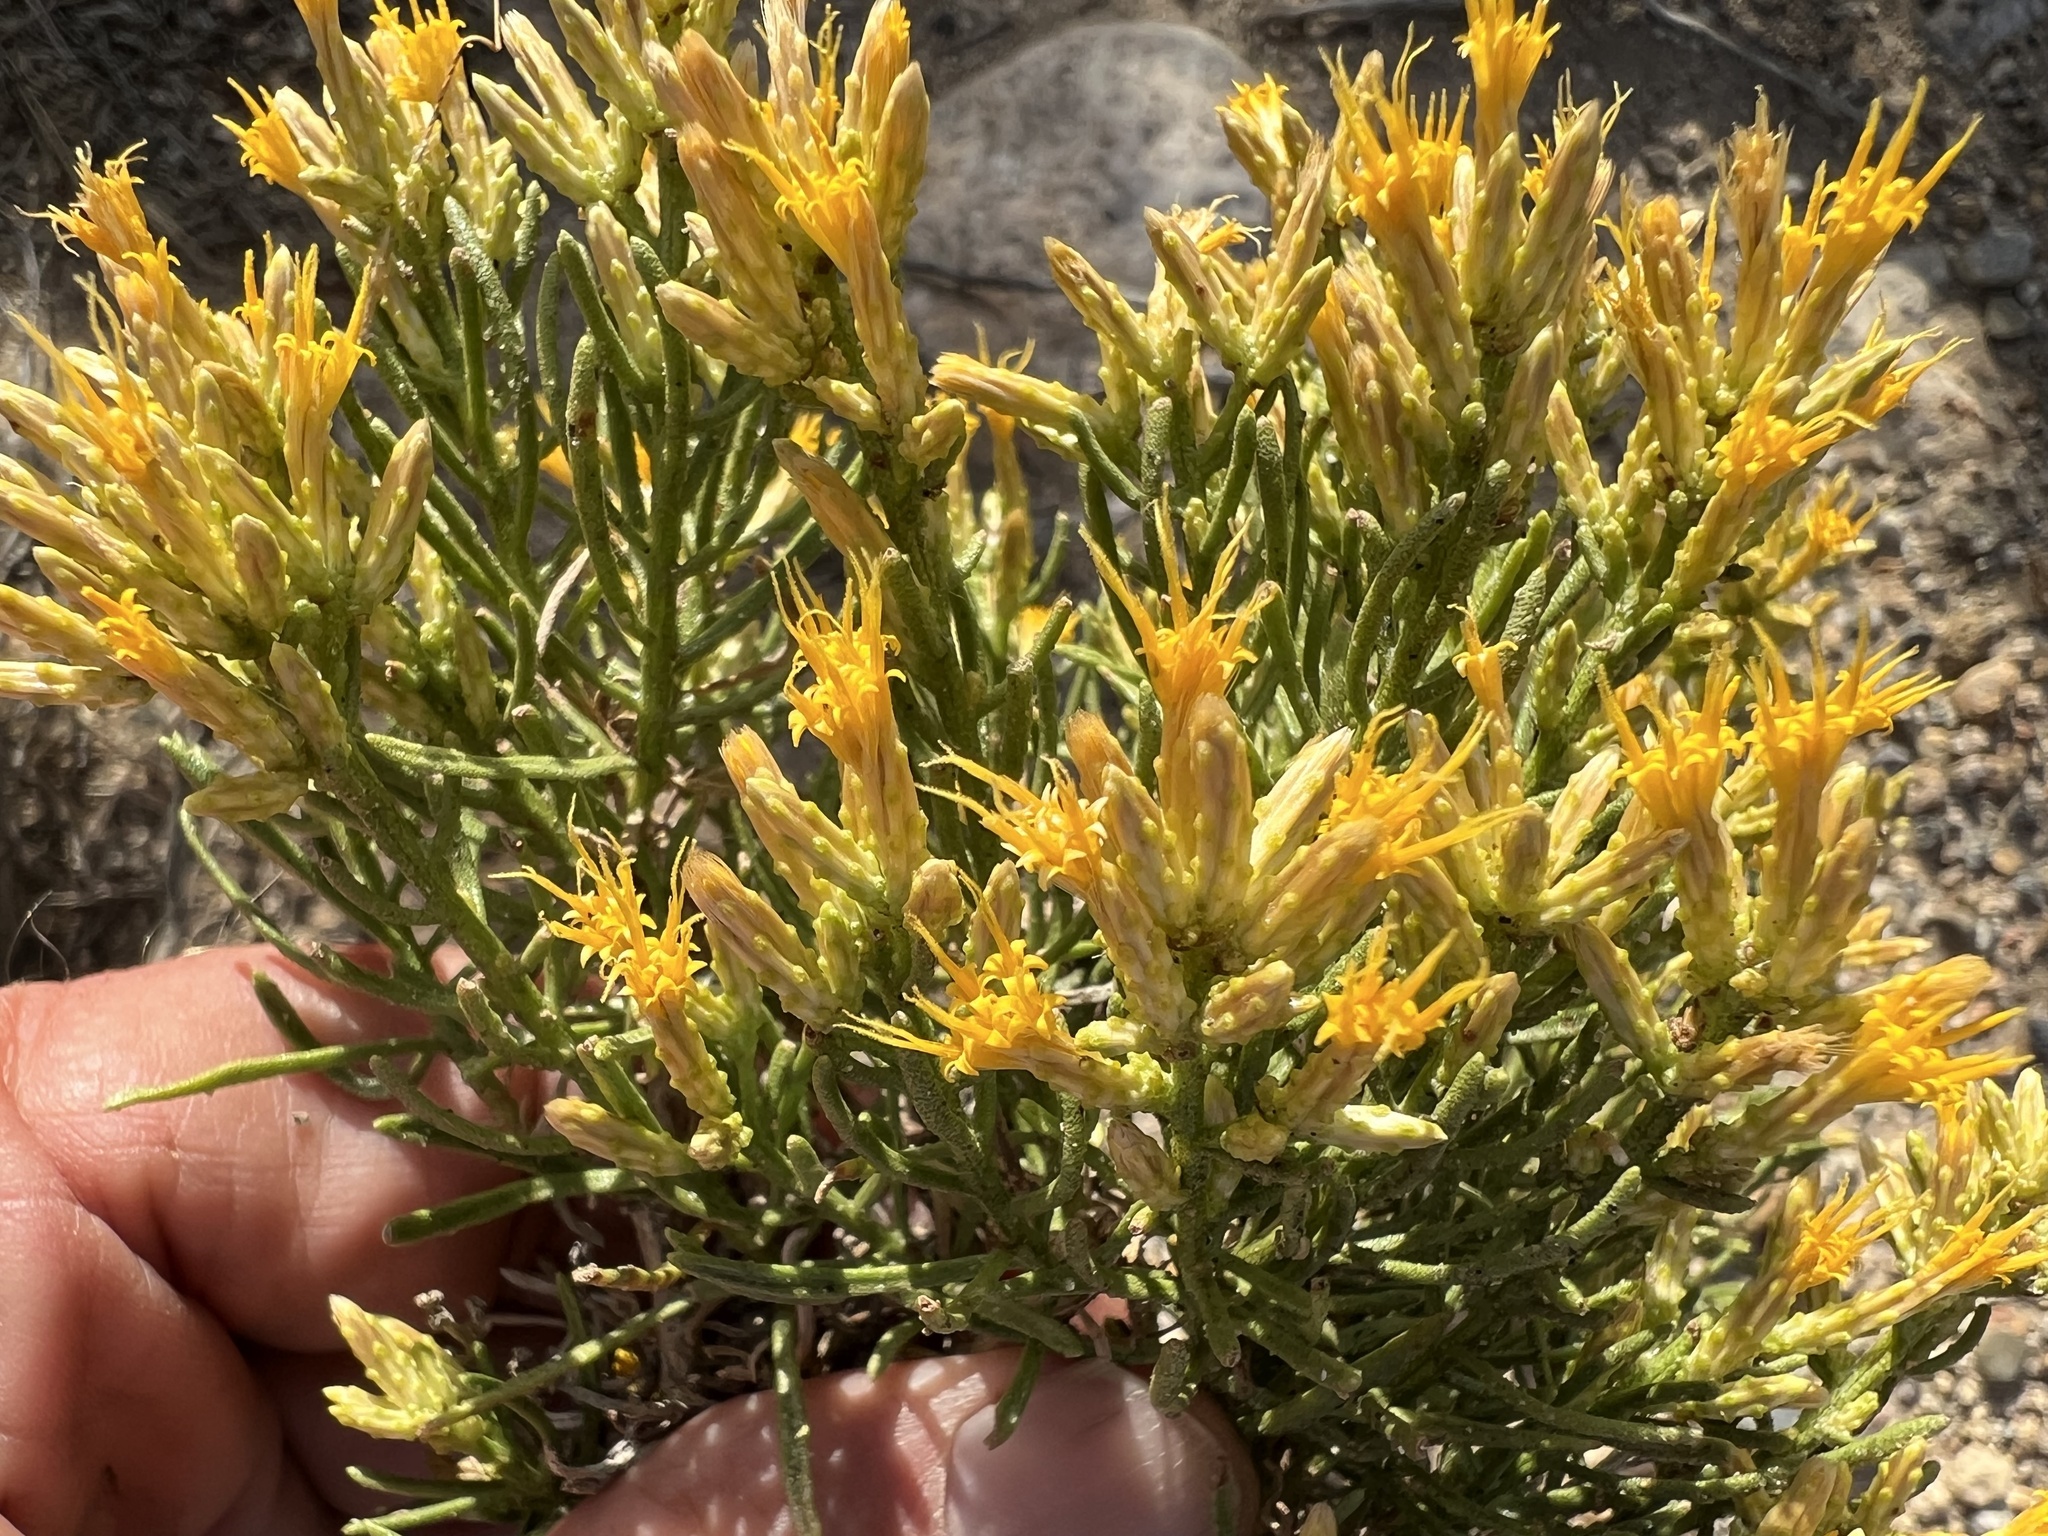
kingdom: Plantae
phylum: Tracheophyta
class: Magnoliopsida
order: Asterales
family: Asteraceae
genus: Ericameria
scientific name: Ericameria teretifolia
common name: Round-leaf rabbitbrush
